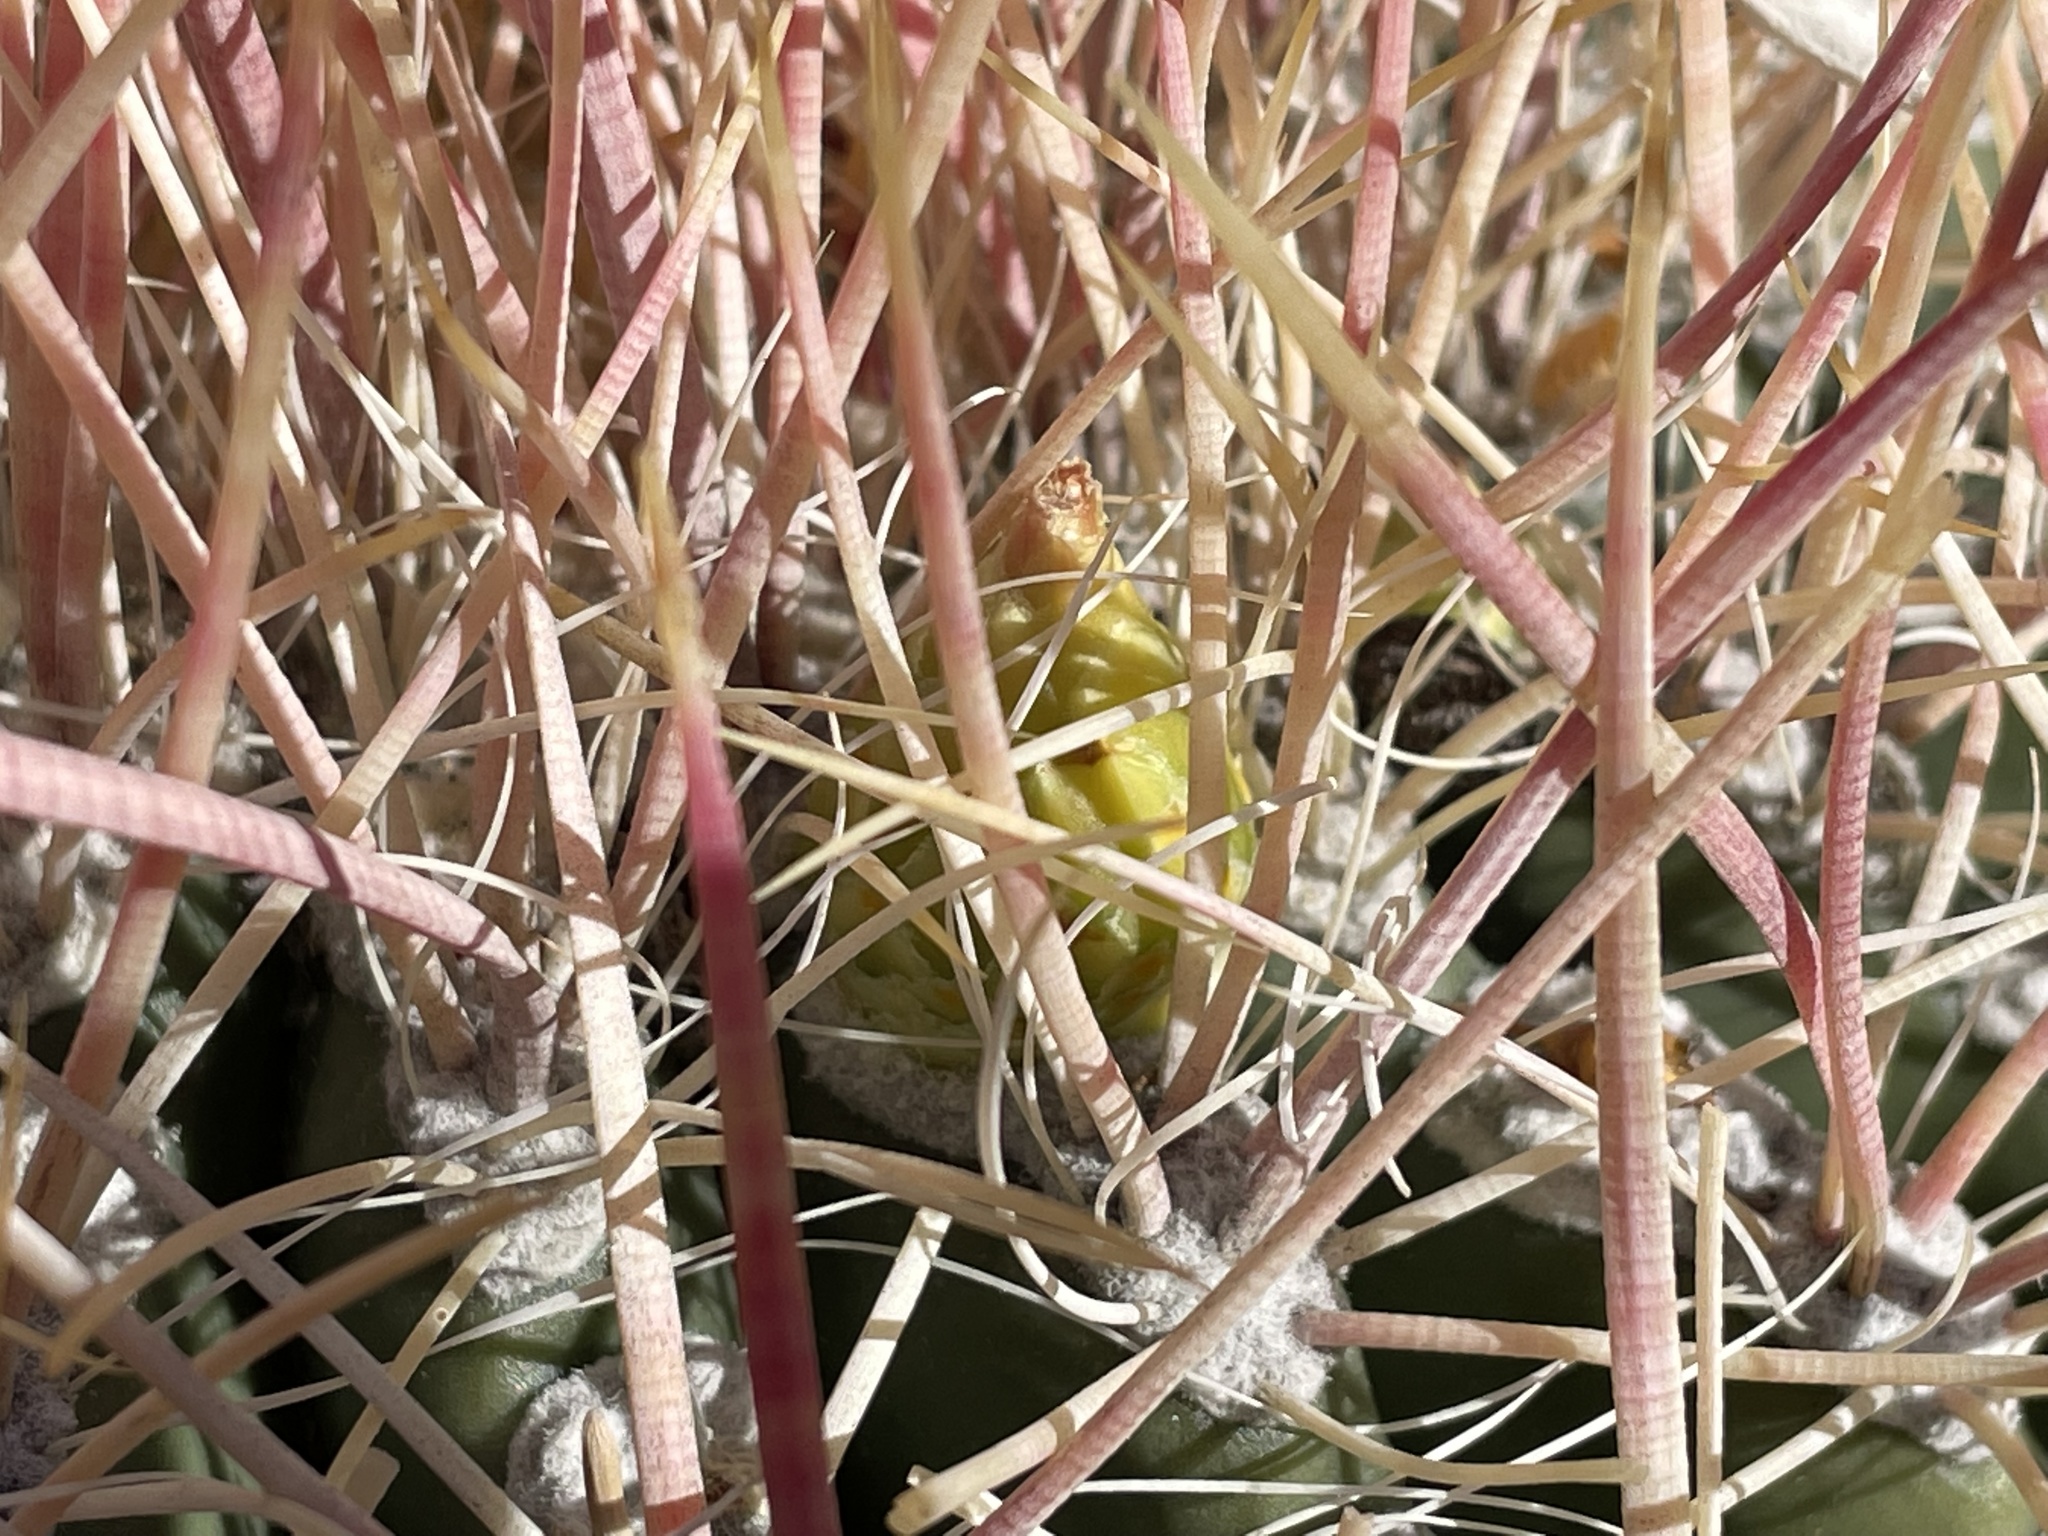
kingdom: Plantae
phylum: Tracheophyta
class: Magnoliopsida
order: Caryophyllales
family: Cactaceae
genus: Ferocactus
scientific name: Ferocactus cylindraceus
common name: California barrel cactus
